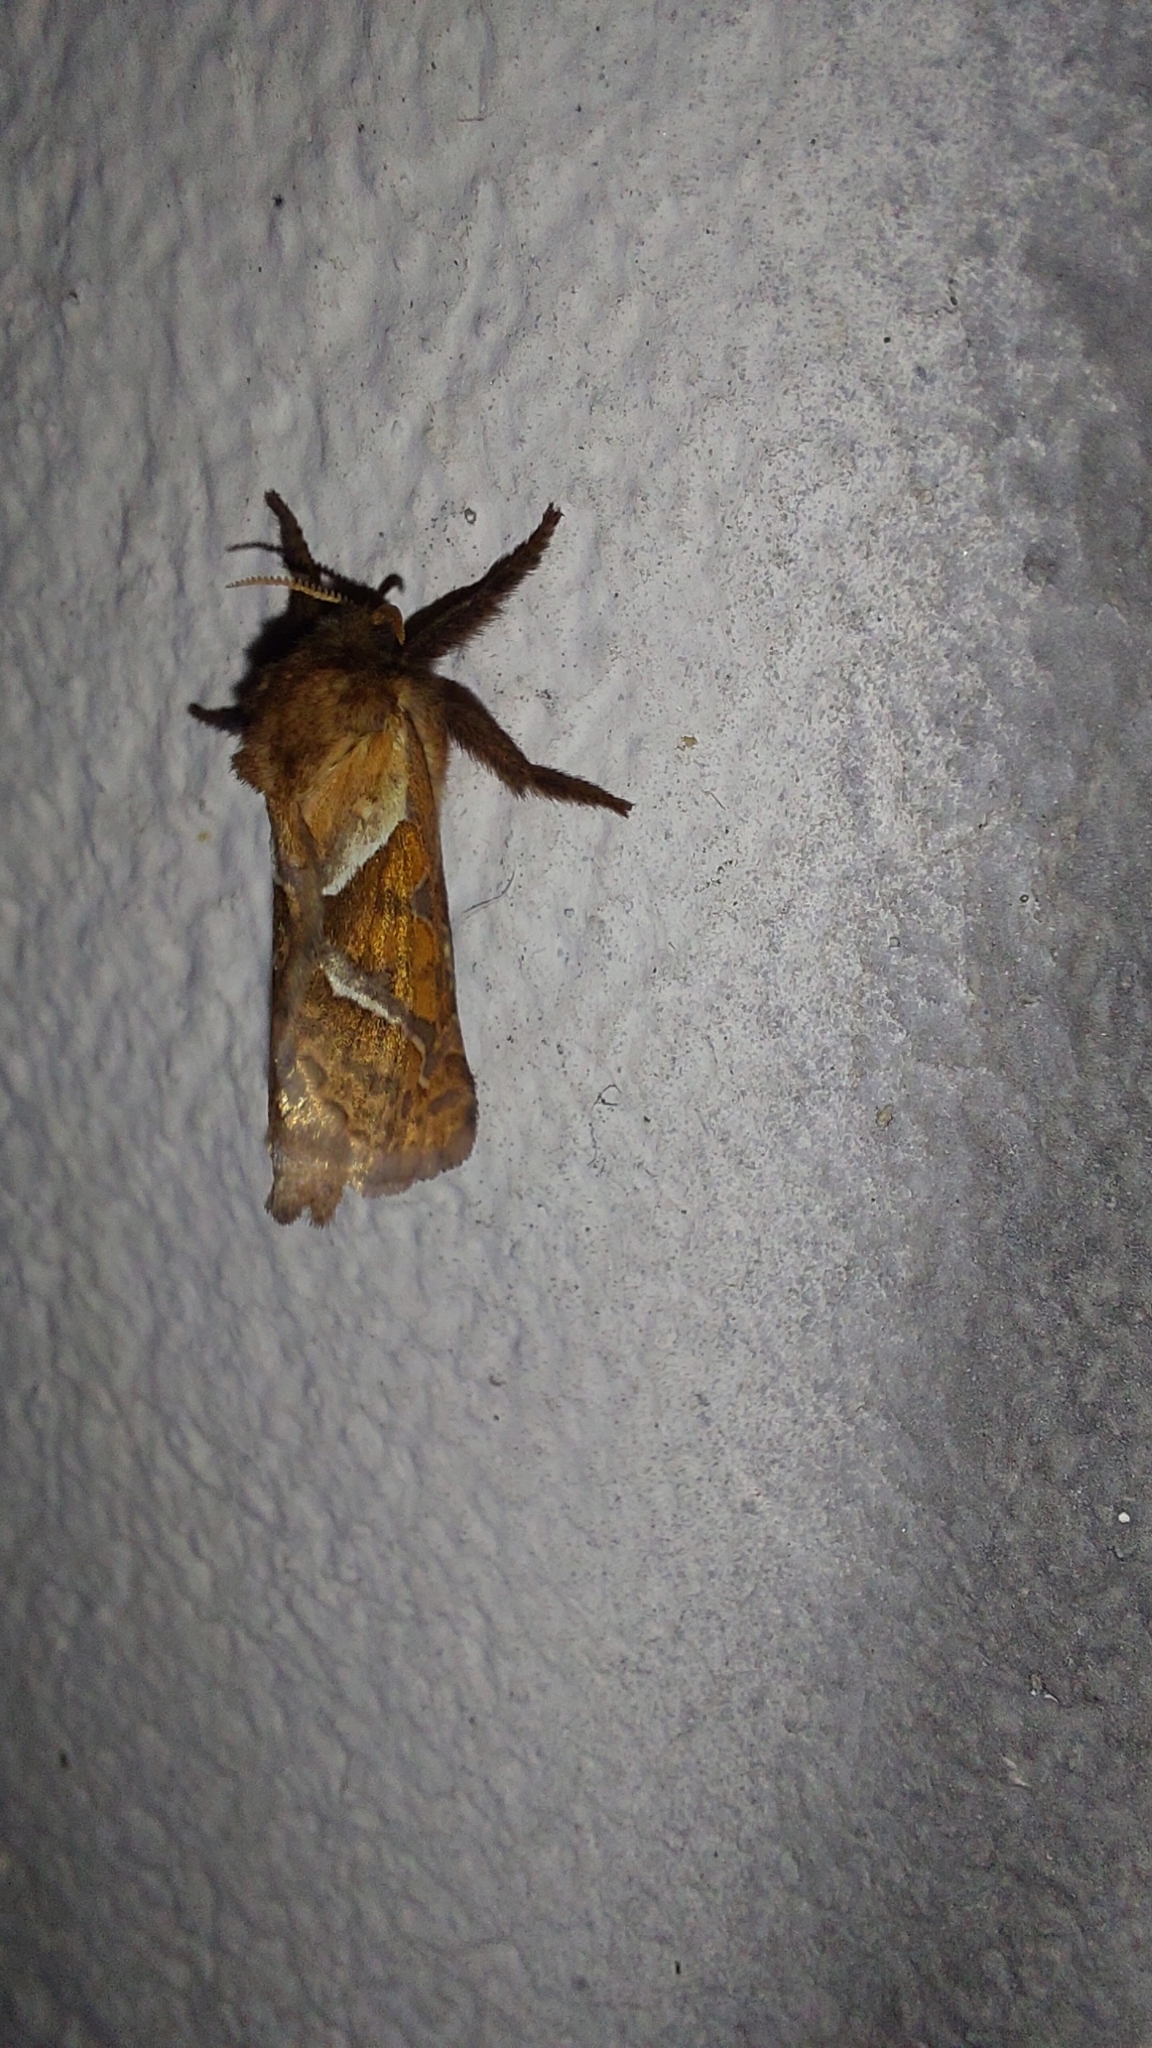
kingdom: Animalia
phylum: Arthropoda
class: Insecta
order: Lepidoptera
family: Hepialidae
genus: Triodia
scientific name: Triodia sylvina
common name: Orange swift
